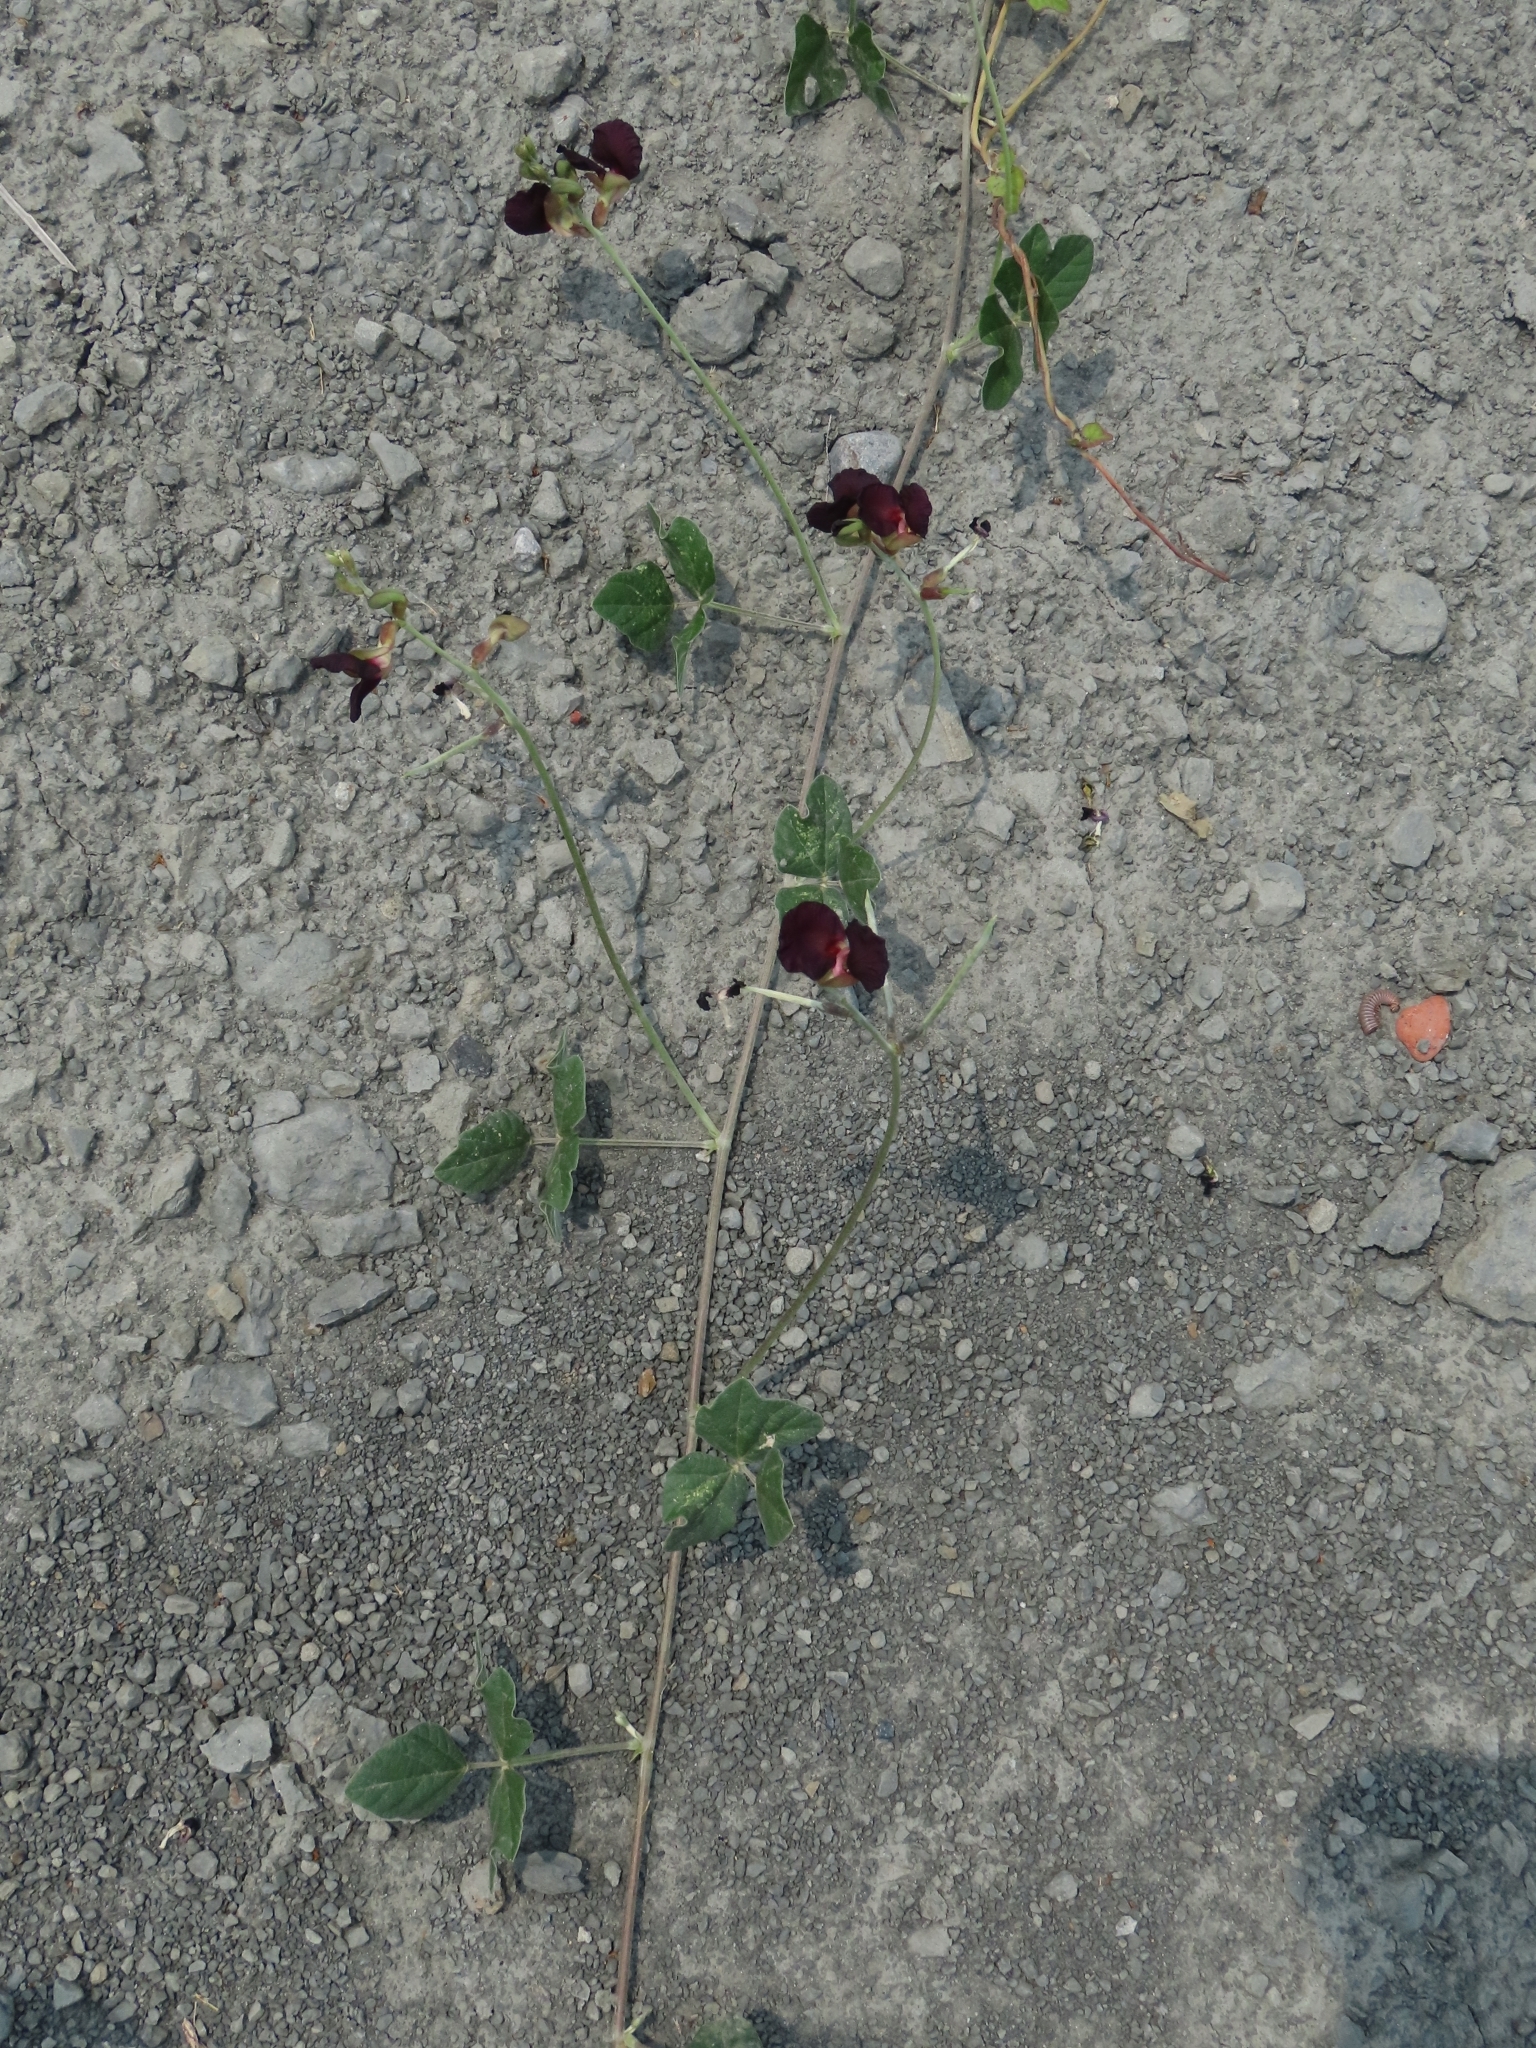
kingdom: Plantae
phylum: Tracheophyta
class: Magnoliopsida
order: Fabales
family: Fabaceae
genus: Macroptilium
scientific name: Macroptilium atropurpureum
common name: Purple bushbean
